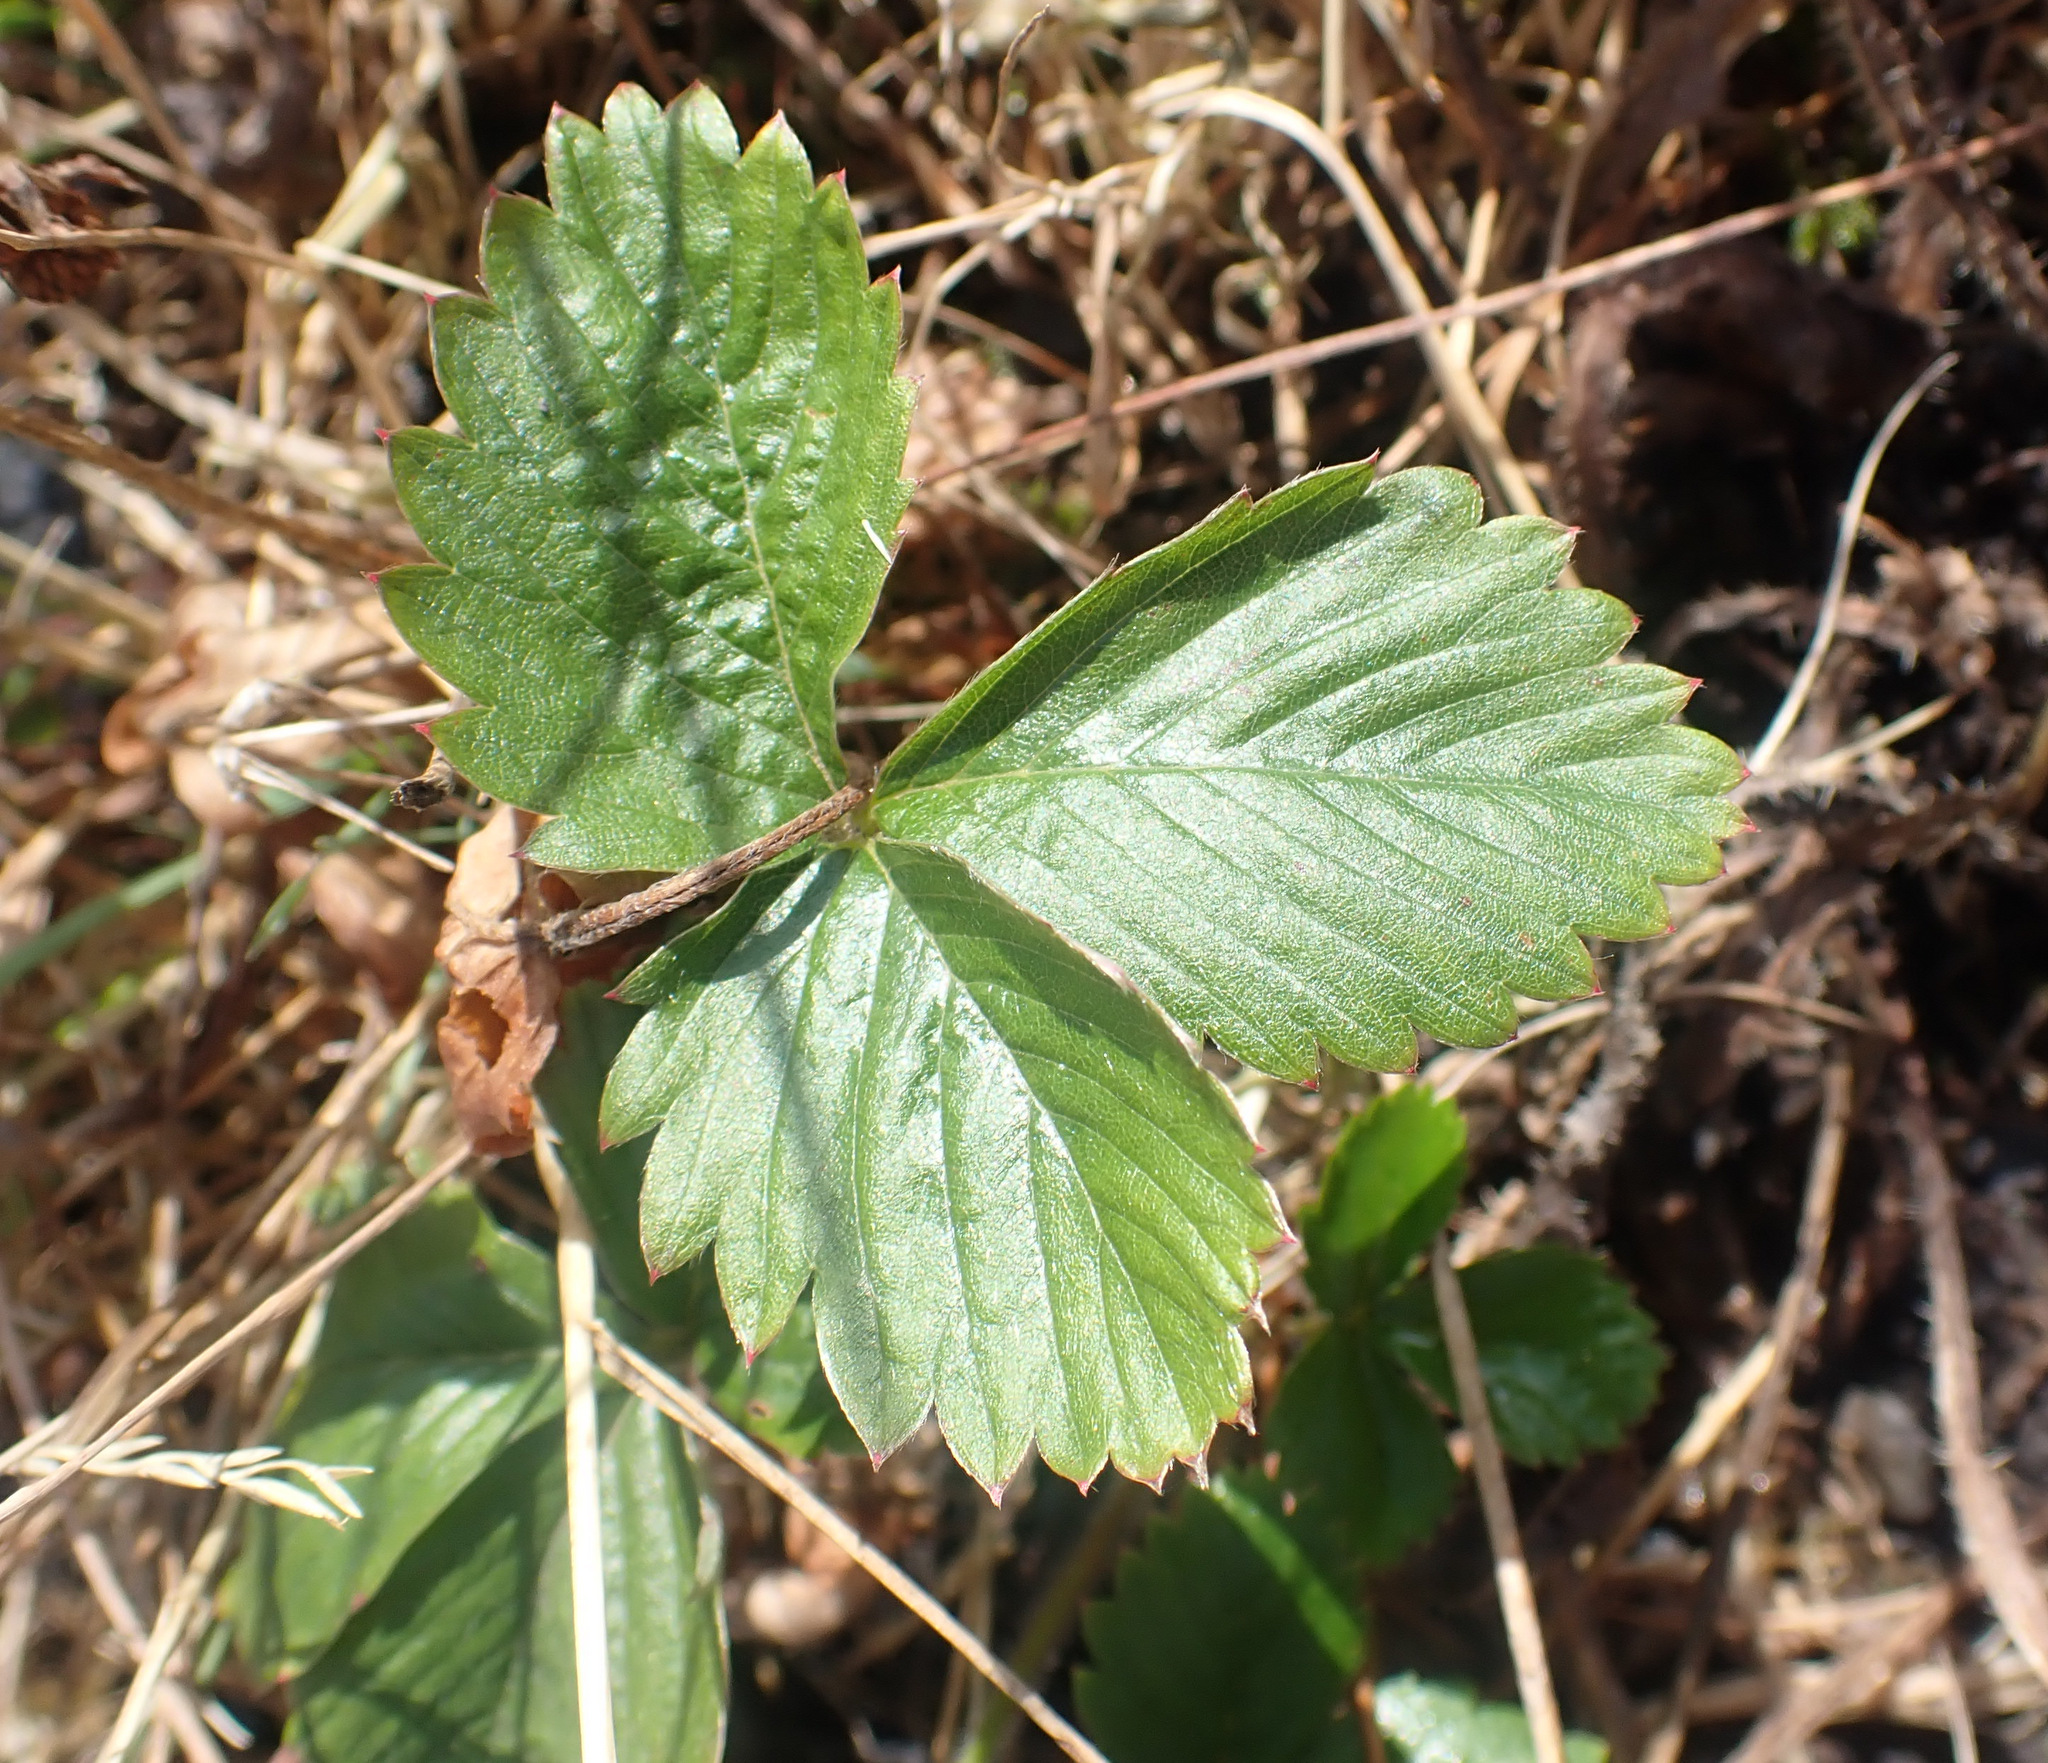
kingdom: Plantae
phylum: Tracheophyta
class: Magnoliopsida
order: Rosales
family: Rosaceae
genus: Fragaria
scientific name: Fragaria vesca
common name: Wild strawberry
